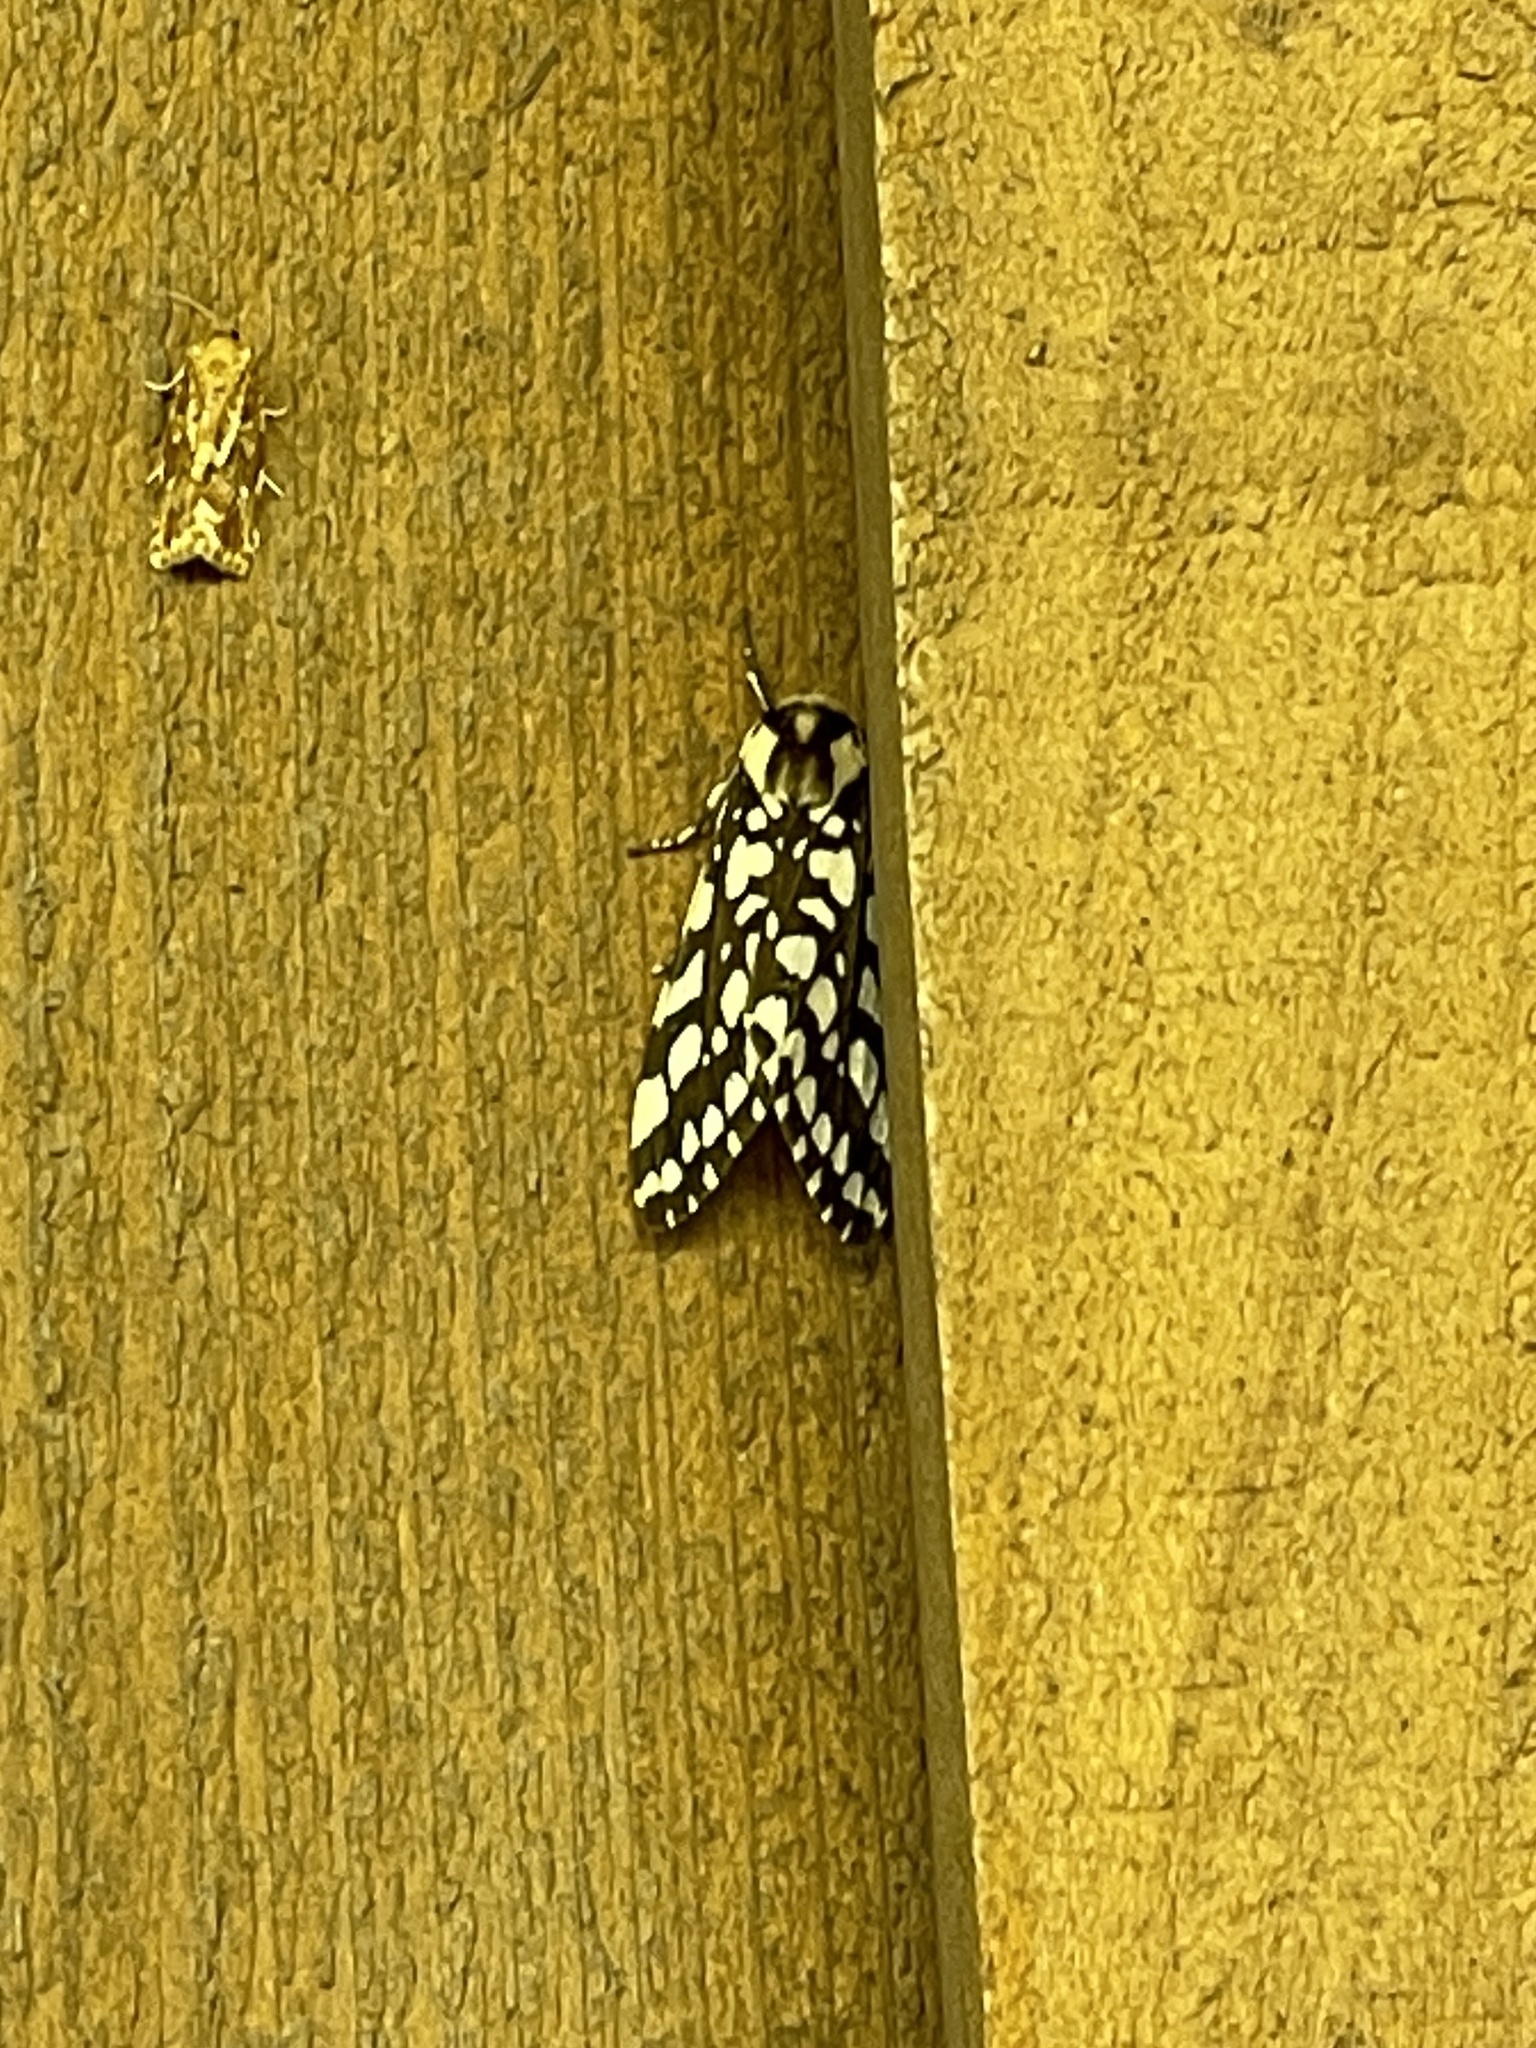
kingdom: Animalia
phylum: Arthropoda
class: Insecta
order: Lepidoptera
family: Erebidae
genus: Lophocampa
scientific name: Lophocampa ingens
